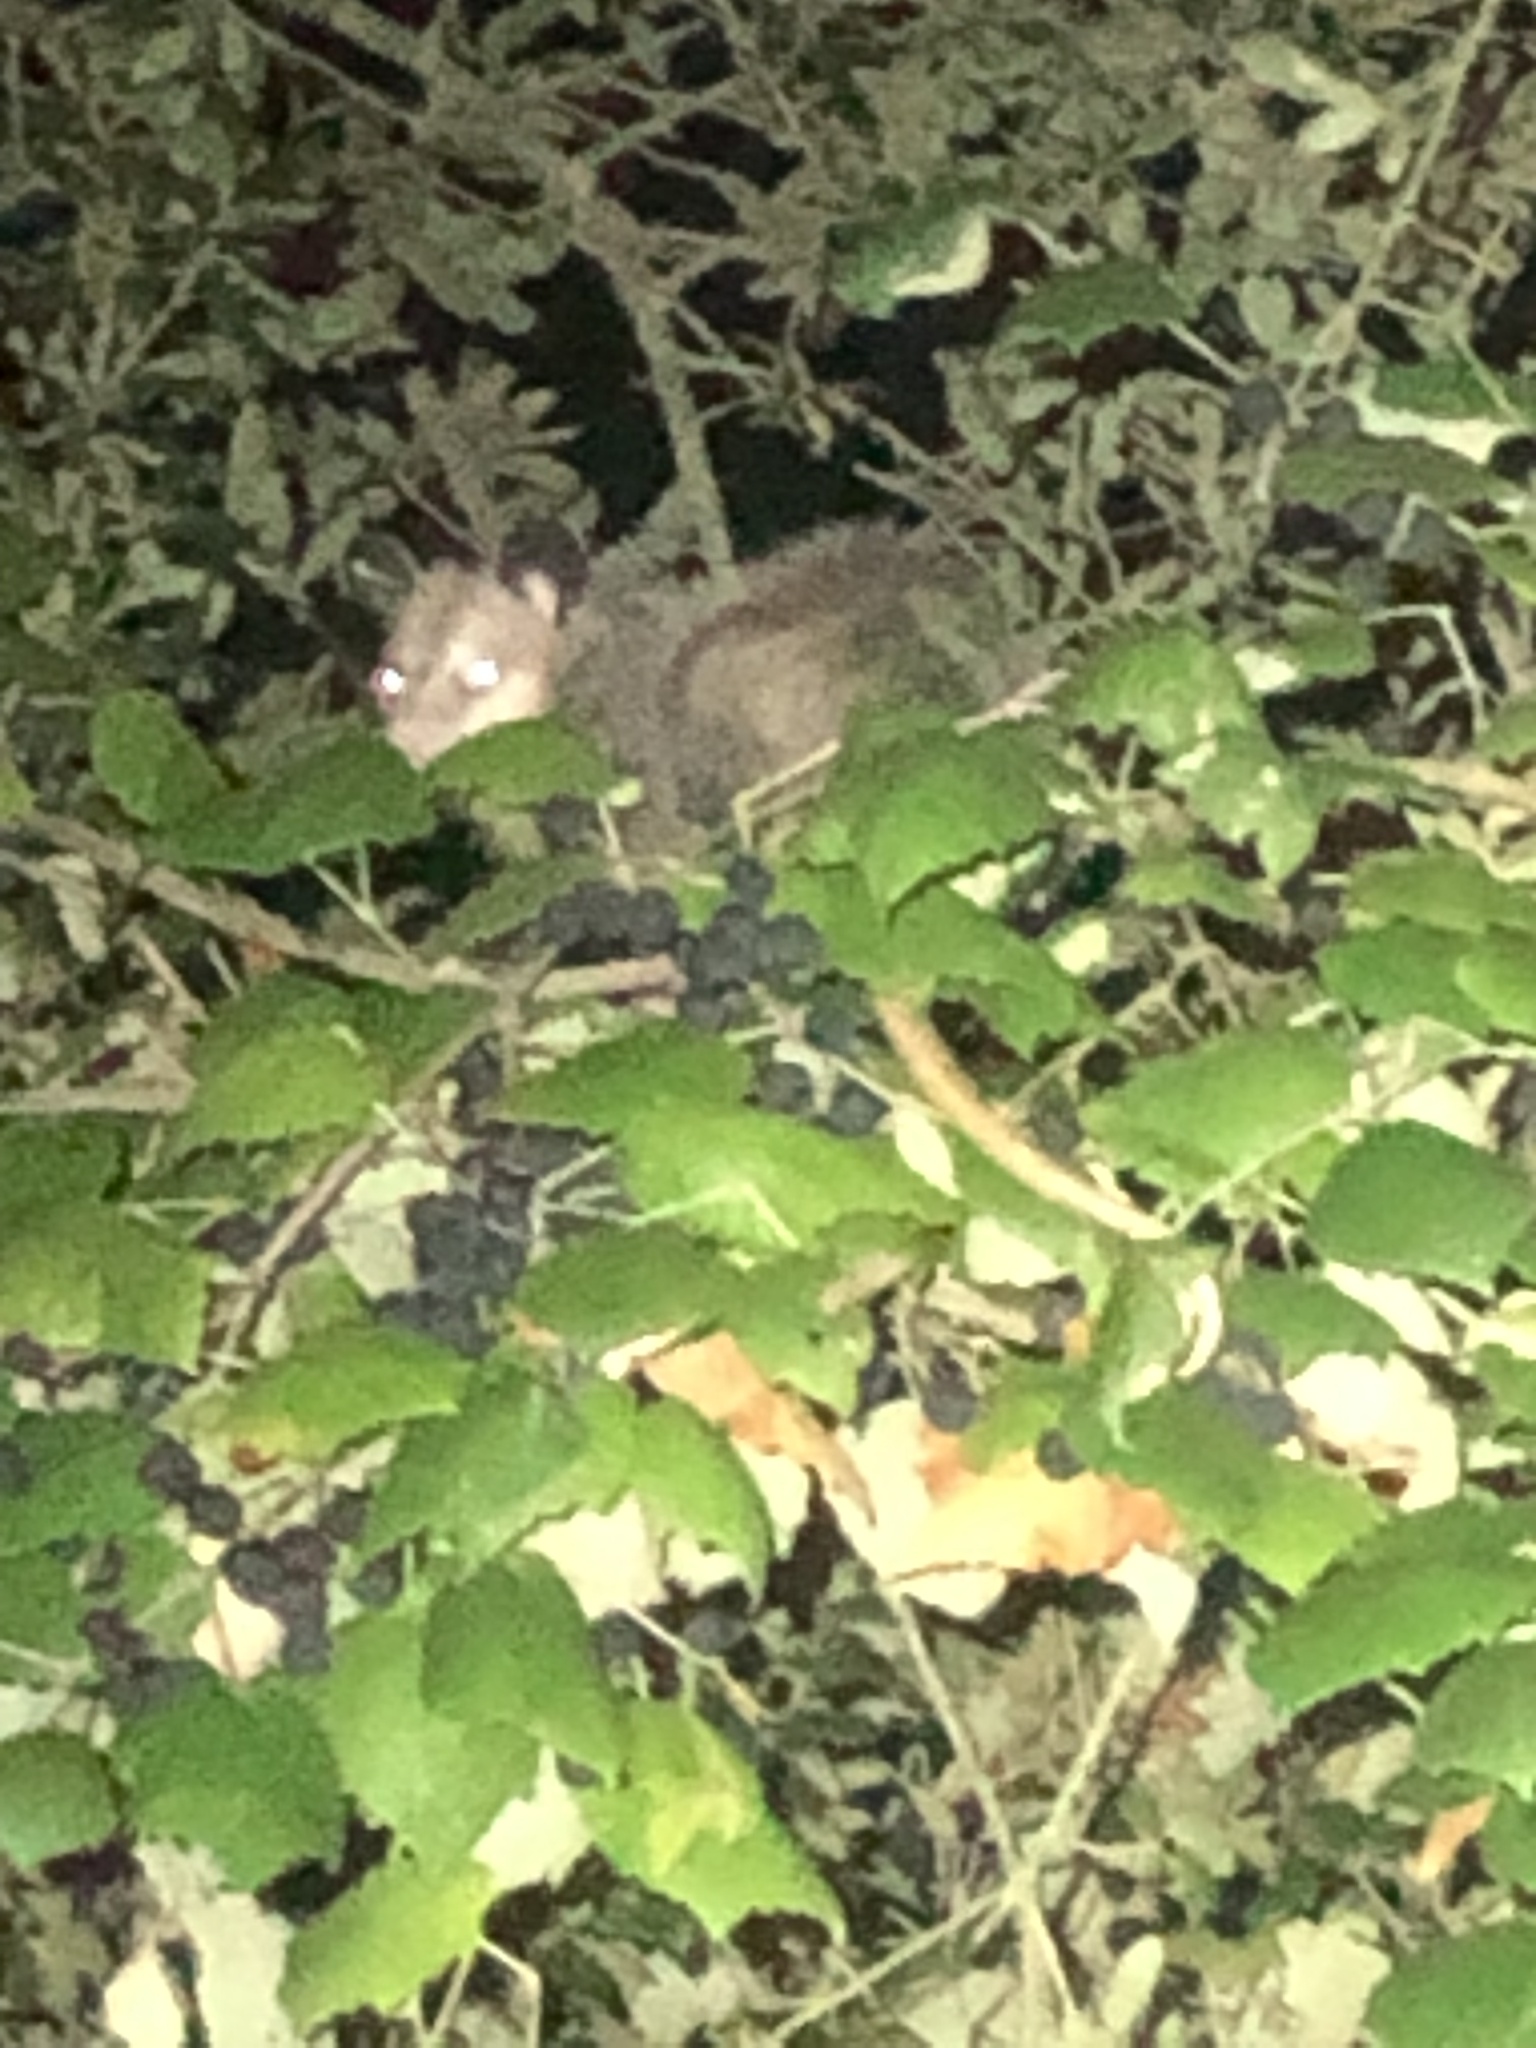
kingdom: Animalia
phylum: Chordata
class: Mammalia
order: Didelphimorphia
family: Didelphidae
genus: Didelphis
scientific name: Didelphis virginiana
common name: Virginia opossum
